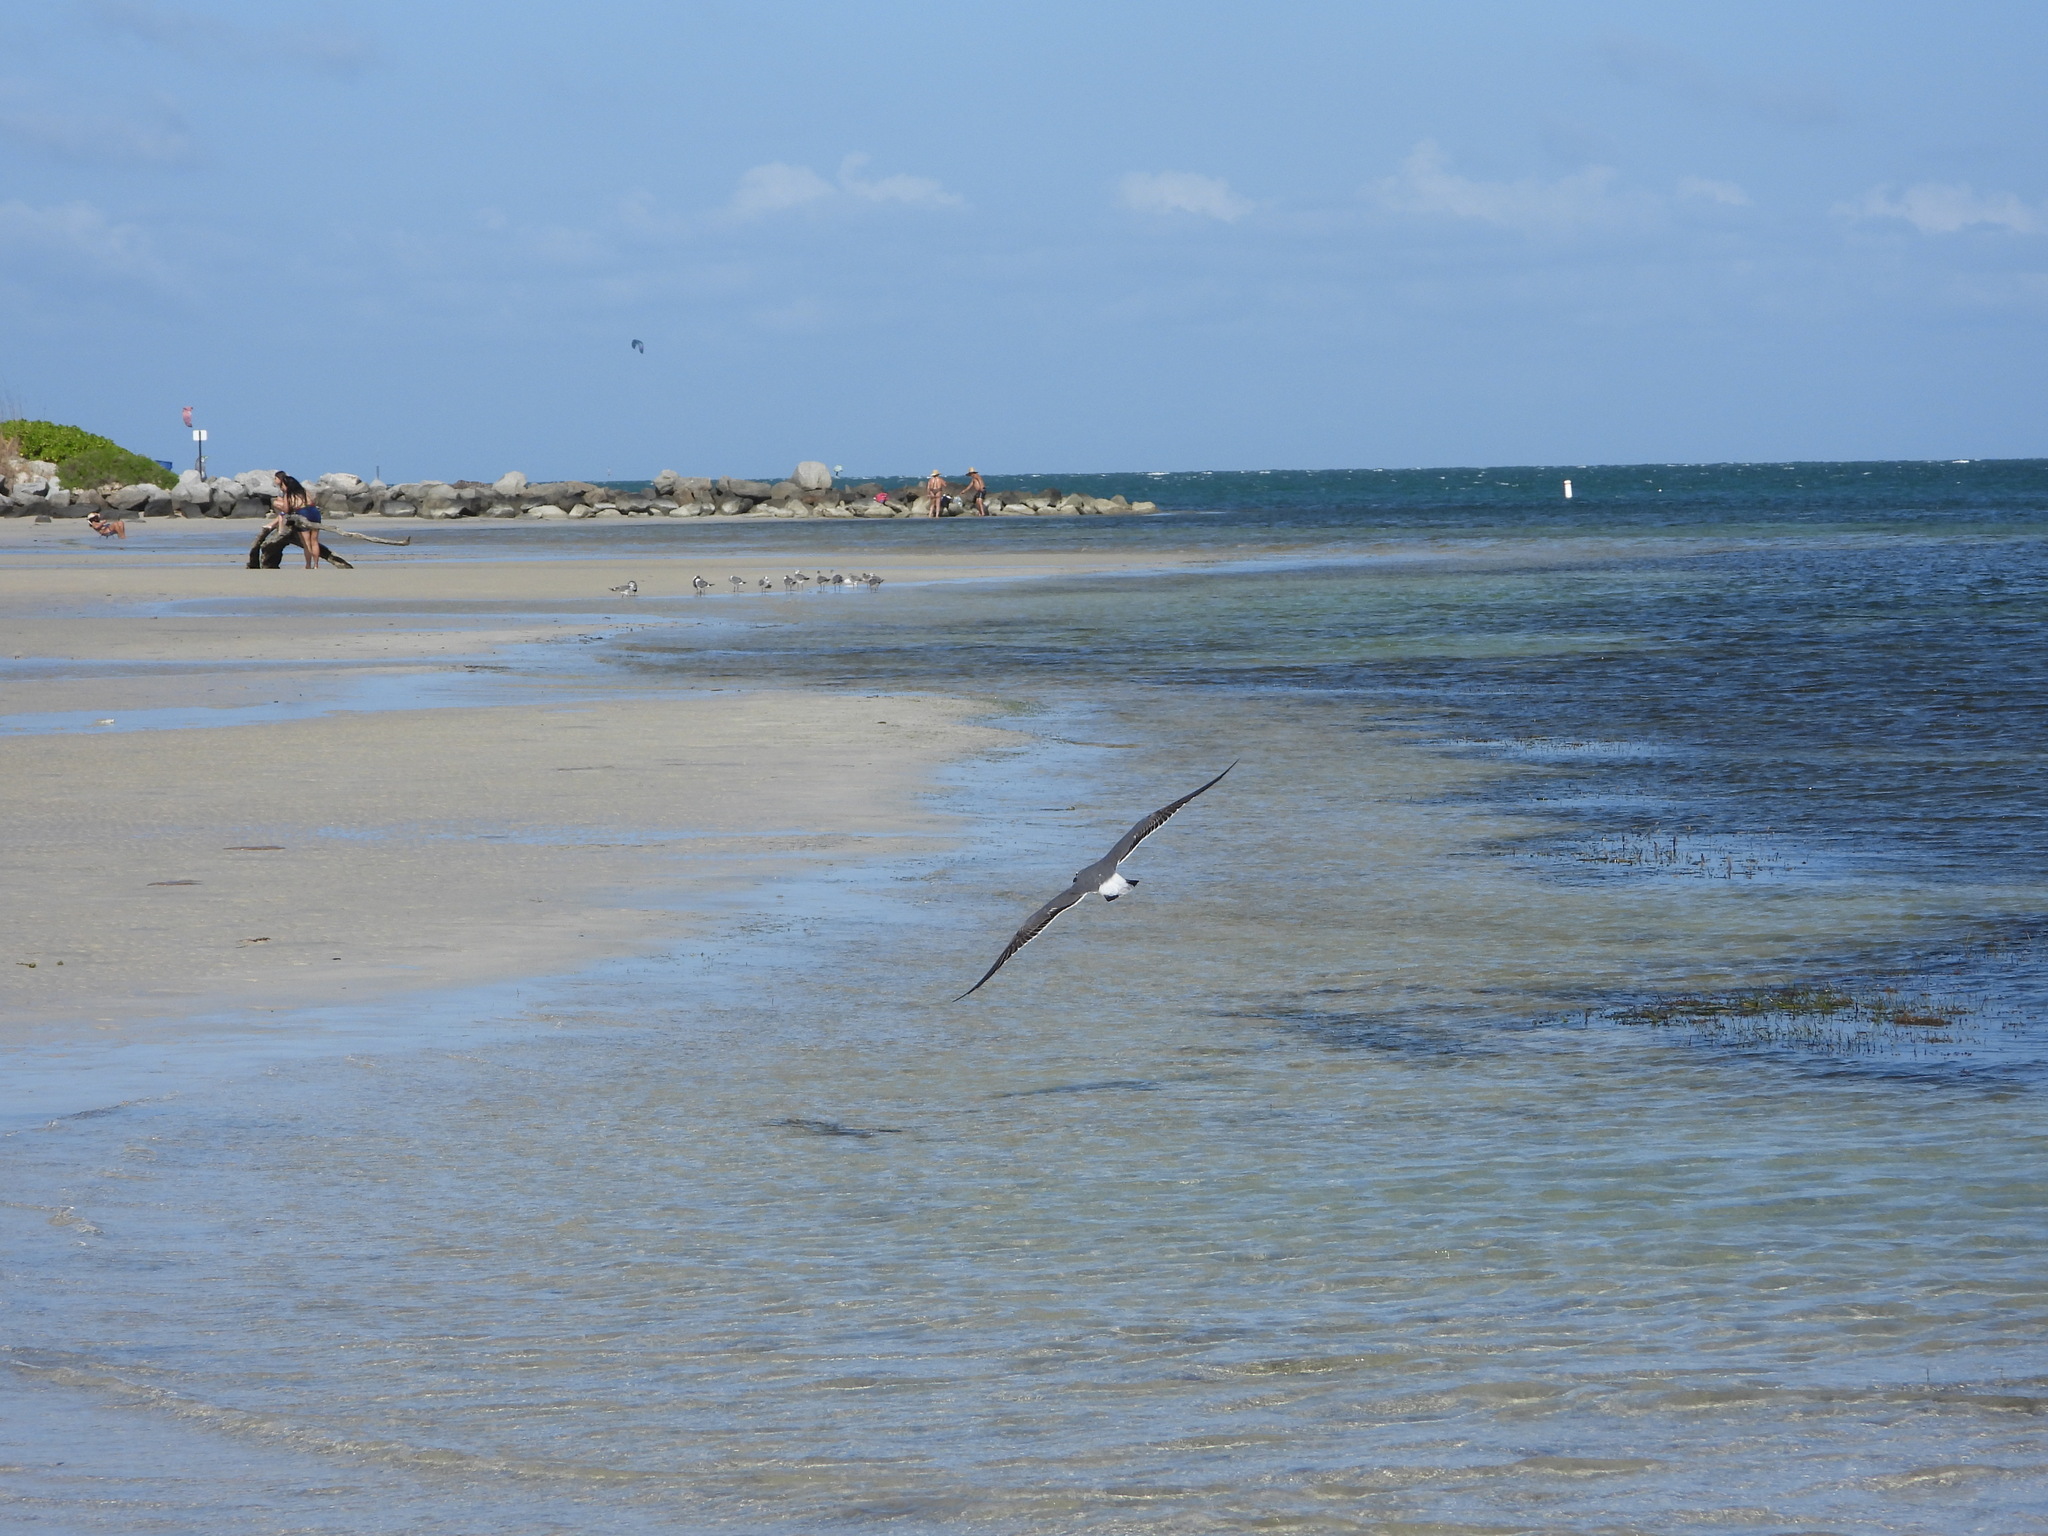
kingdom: Animalia
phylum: Chordata
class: Aves
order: Charadriiformes
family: Laridae
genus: Leucophaeus
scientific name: Leucophaeus atricilla
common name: Laughing gull
